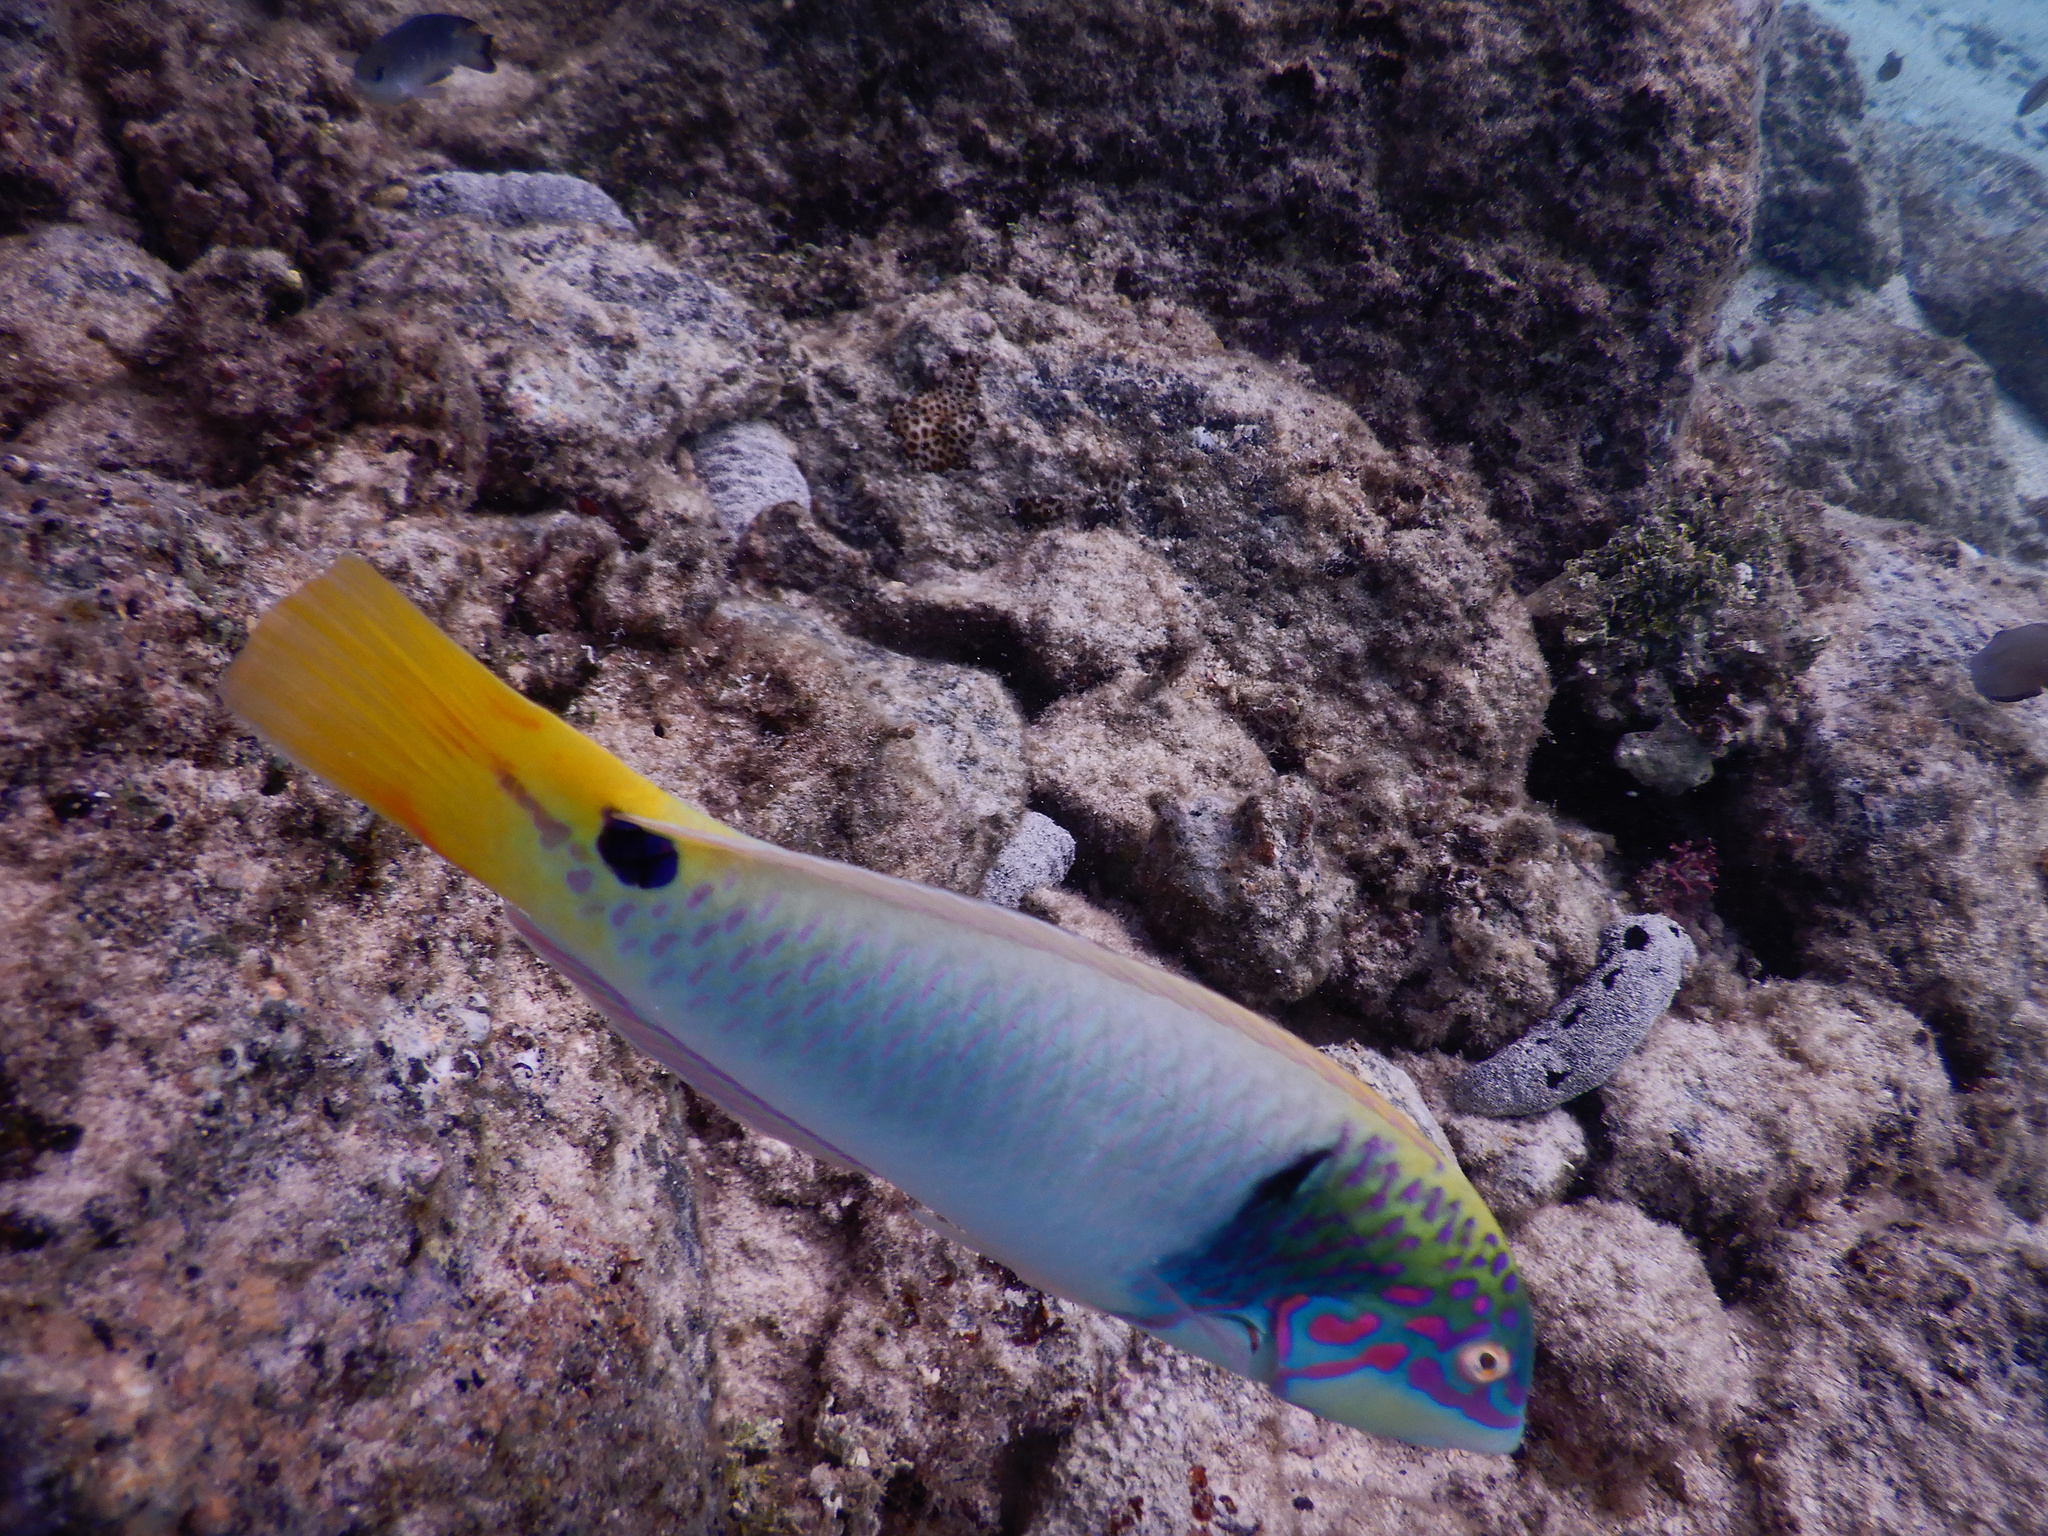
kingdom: Animalia
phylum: Chordata
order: Perciformes
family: Labridae
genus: Halichoeres
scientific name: Halichoeres trimaculatus
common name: Three-spot wrasse
